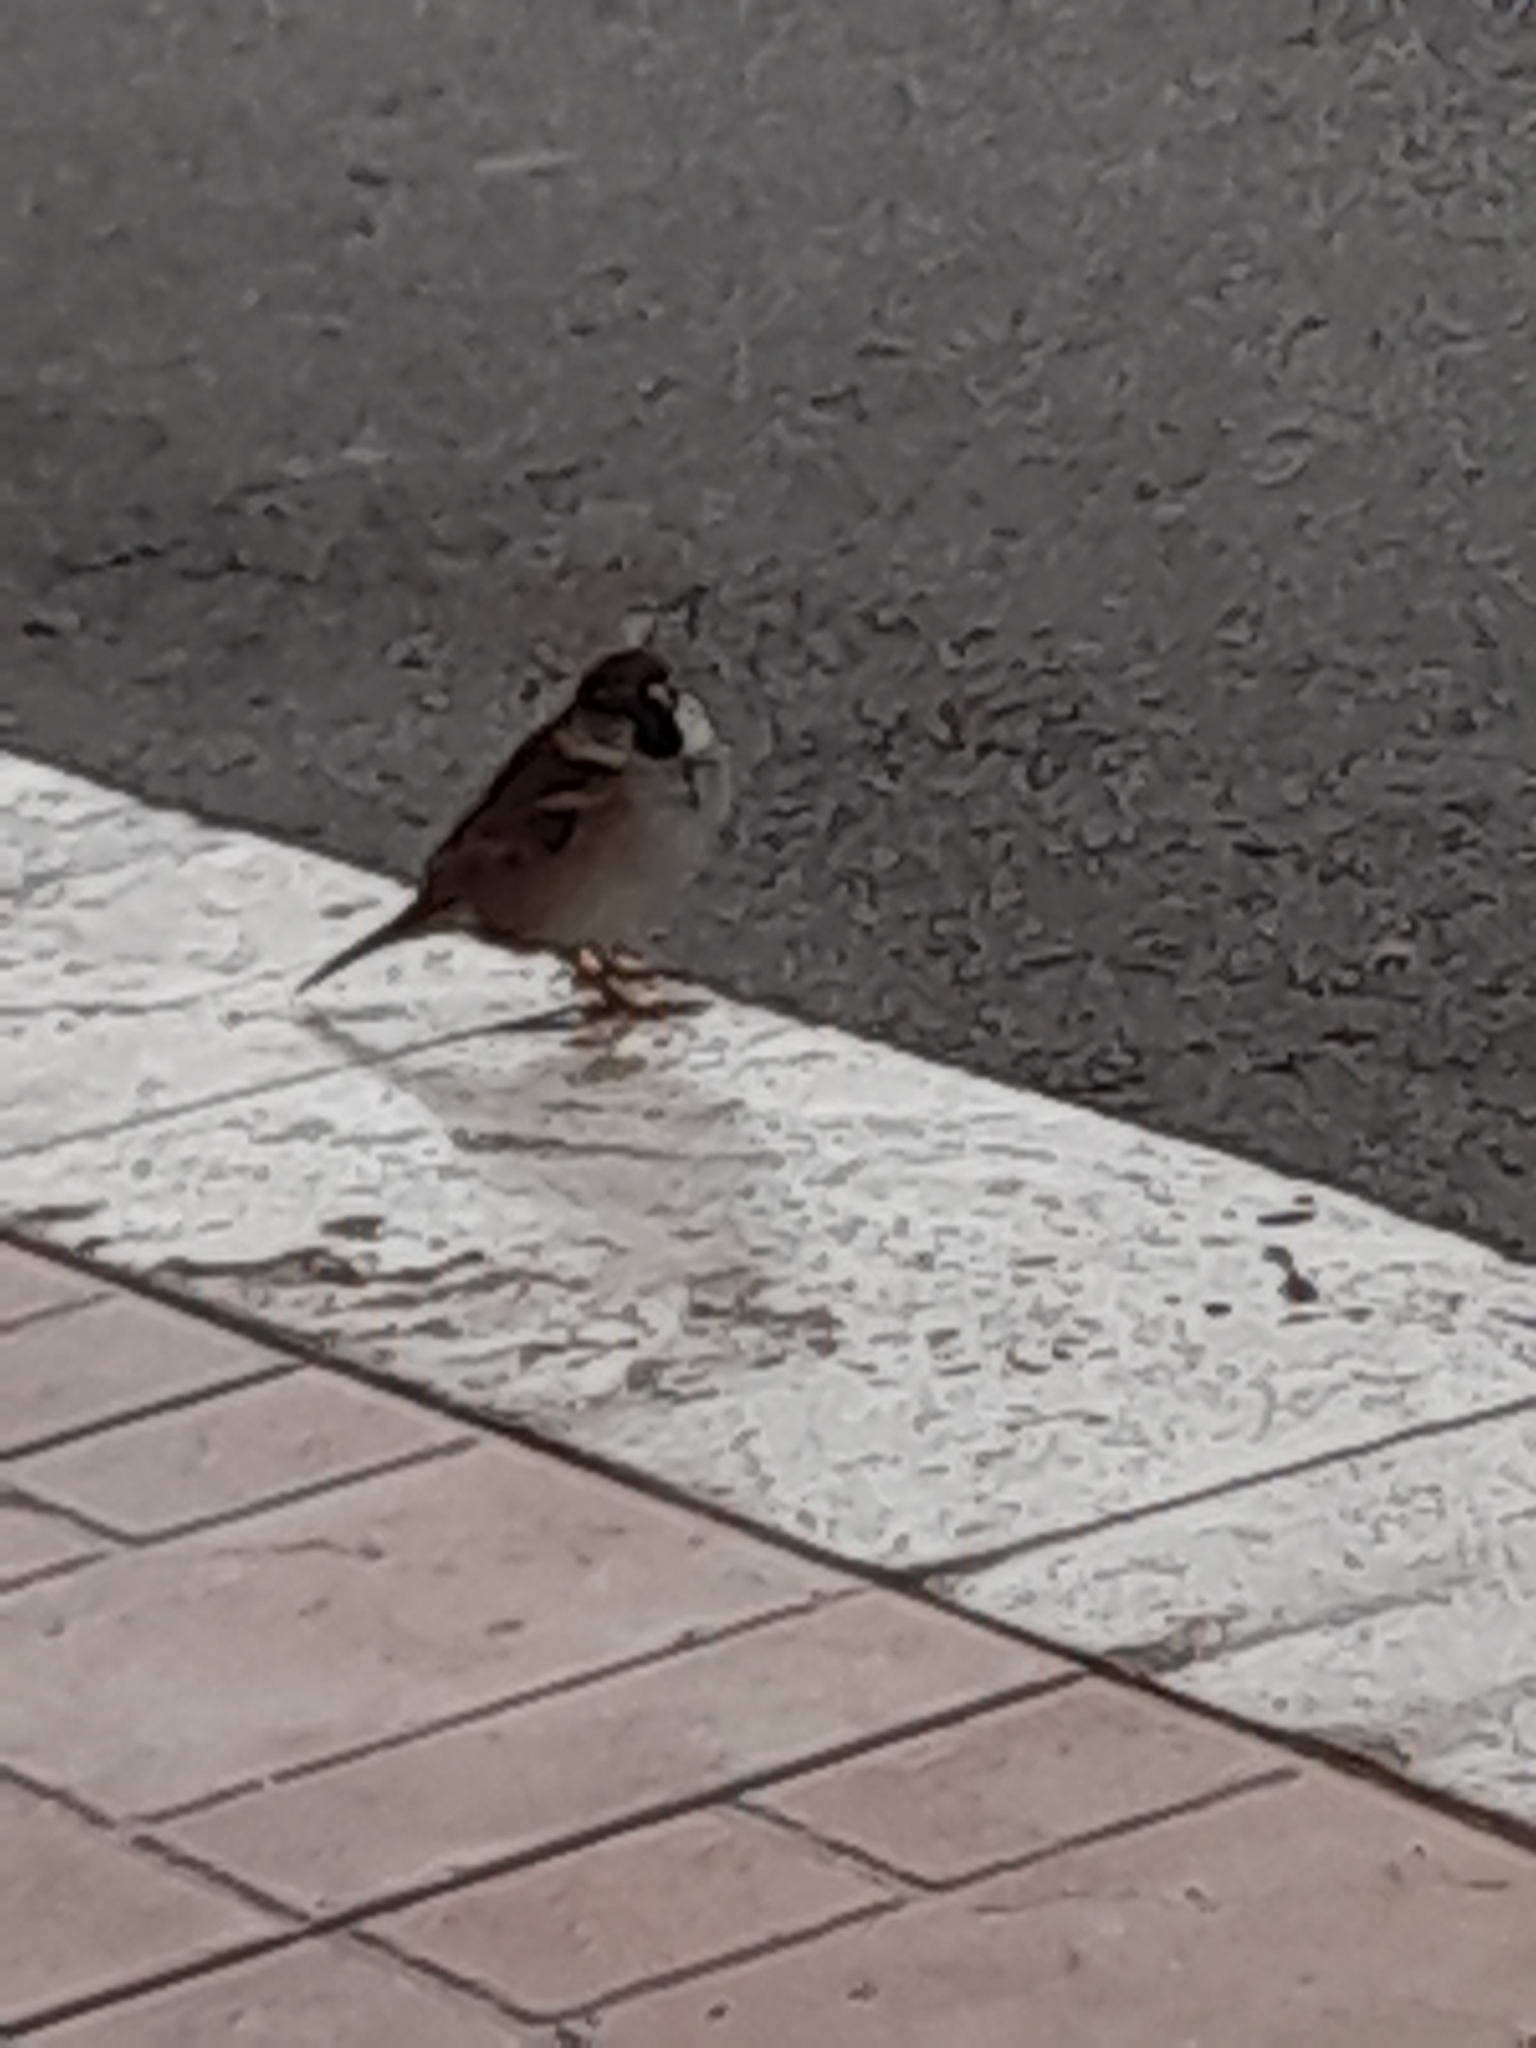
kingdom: Animalia
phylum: Chordata
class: Aves
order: Passeriformes
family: Passeridae
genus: Passer
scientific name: Passer italiae
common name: Italian sparrow
